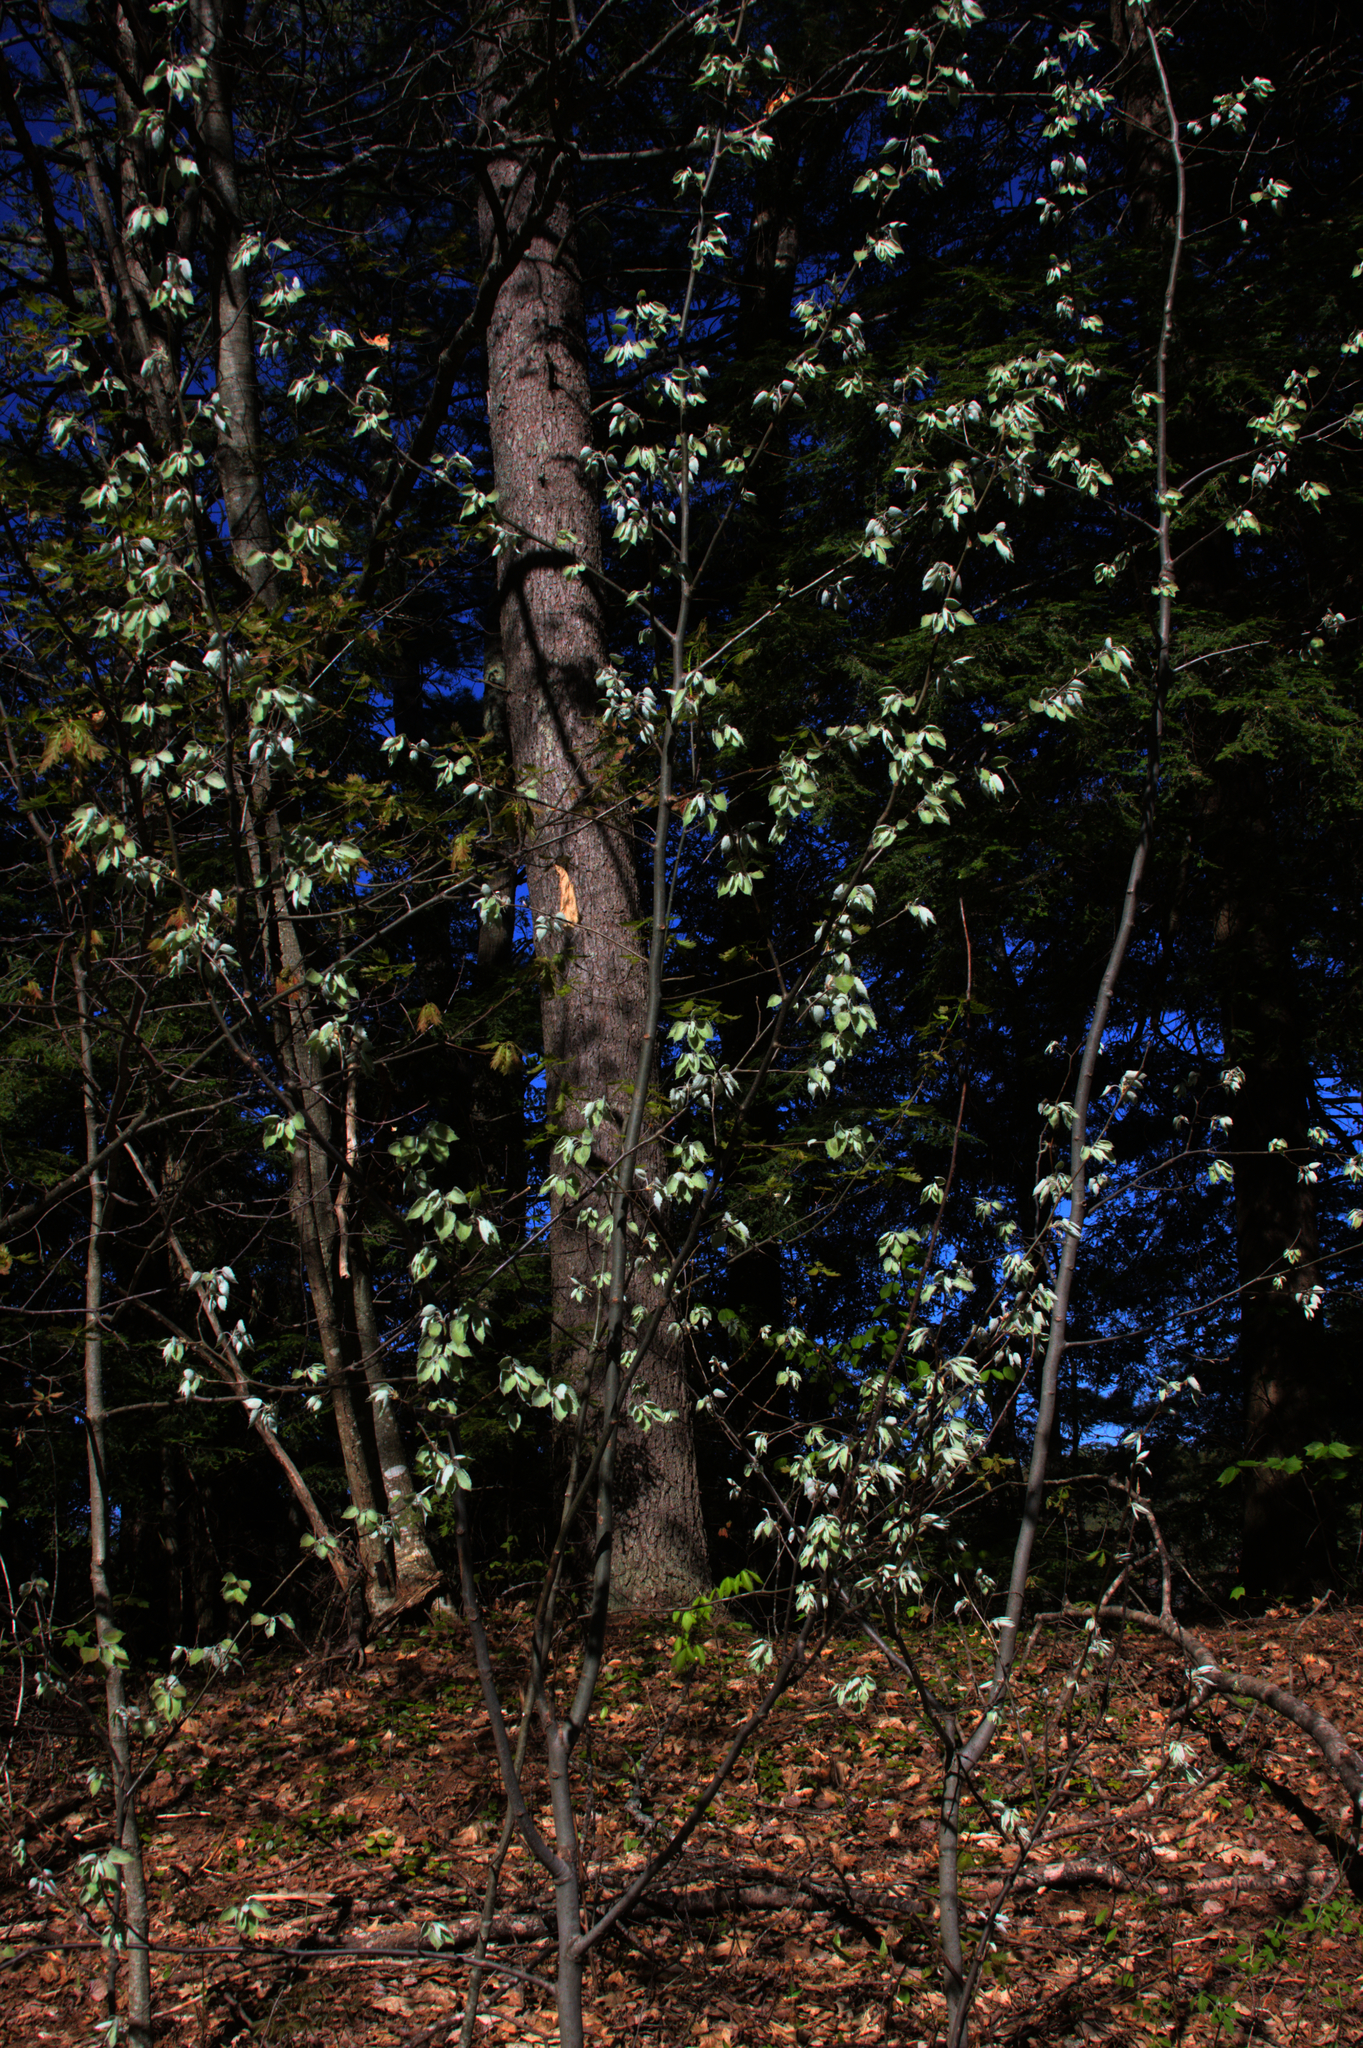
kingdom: Plantae
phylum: Tracheophyta
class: Magnoliopsida
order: Malpighiales
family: Salicaceae
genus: Populus
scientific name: Populus grandidentata
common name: Bigtooth aspen
